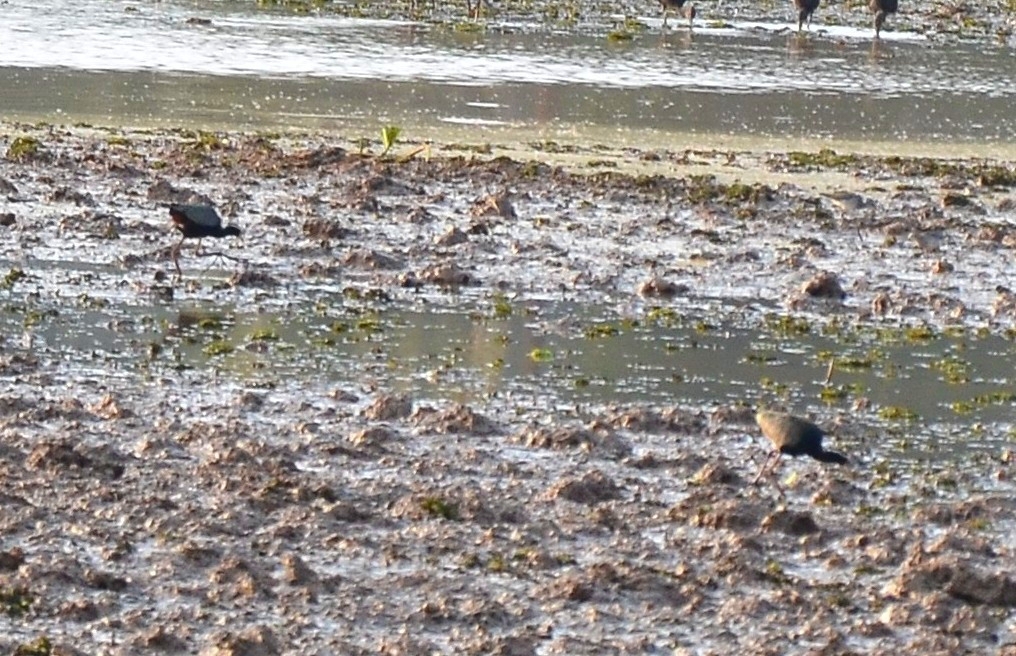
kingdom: Animalia
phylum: Chordata
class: Aves
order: Charadriiformes
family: Jacanidae
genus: Metopidius
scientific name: Metopidius indicus
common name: Bronze-winged jacana
